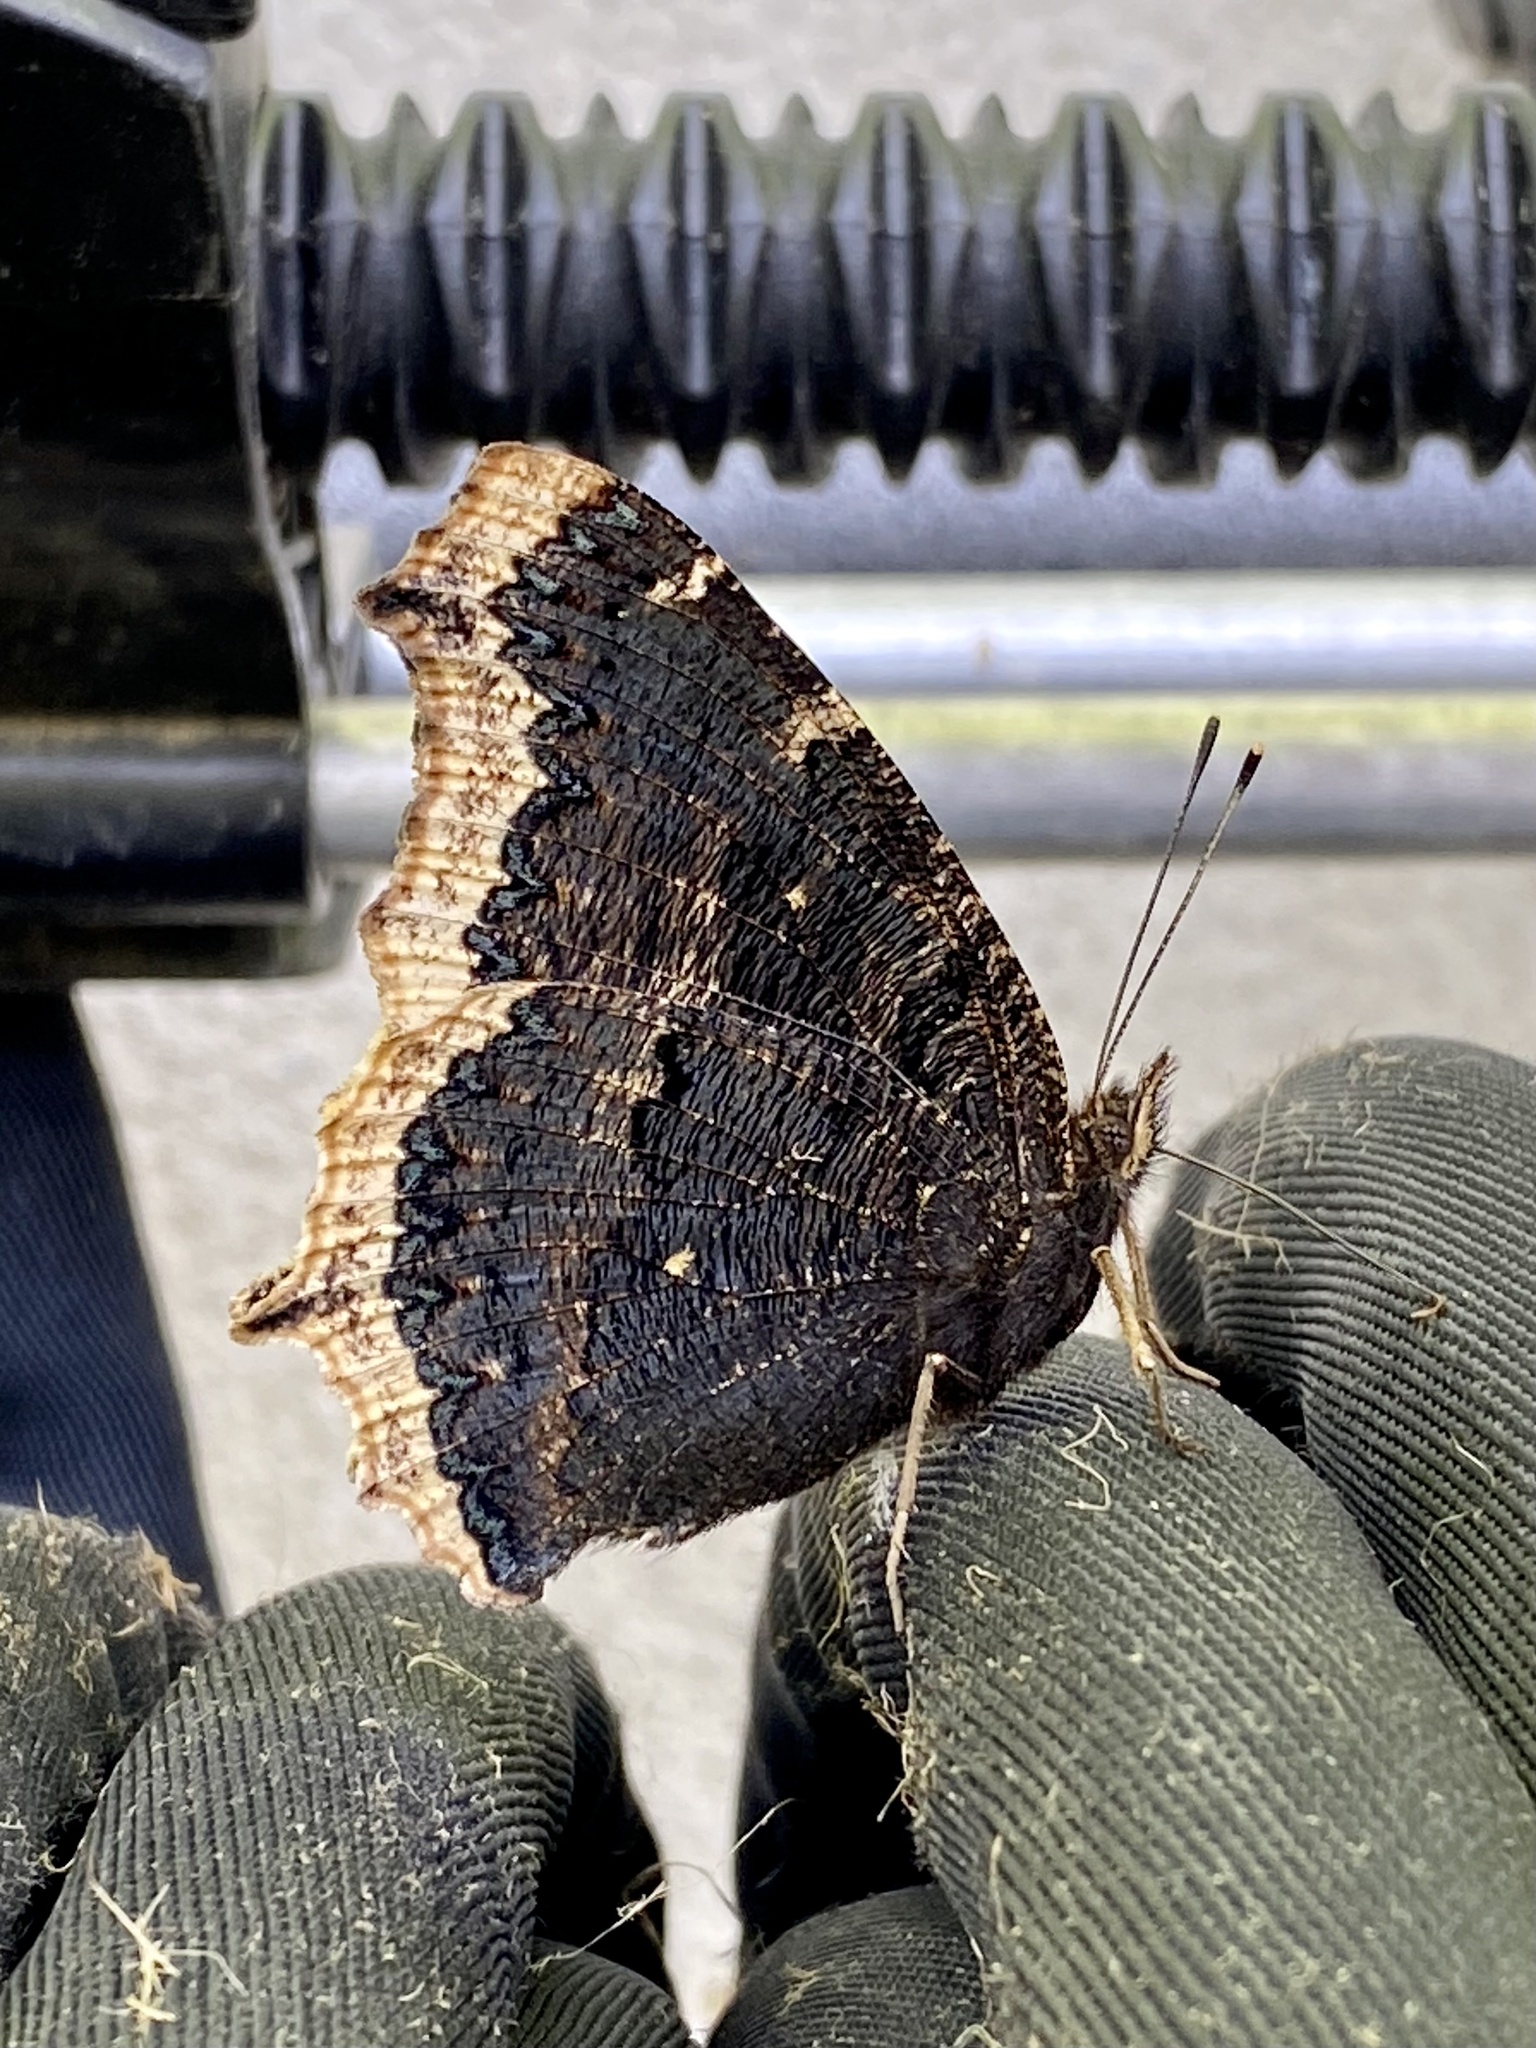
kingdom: Animalia
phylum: Arthropoda
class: Insecta
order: Lepidoptera
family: Nymphalidae
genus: Nymphalis
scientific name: Nymphalis antiopa
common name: Camberwell beauty
